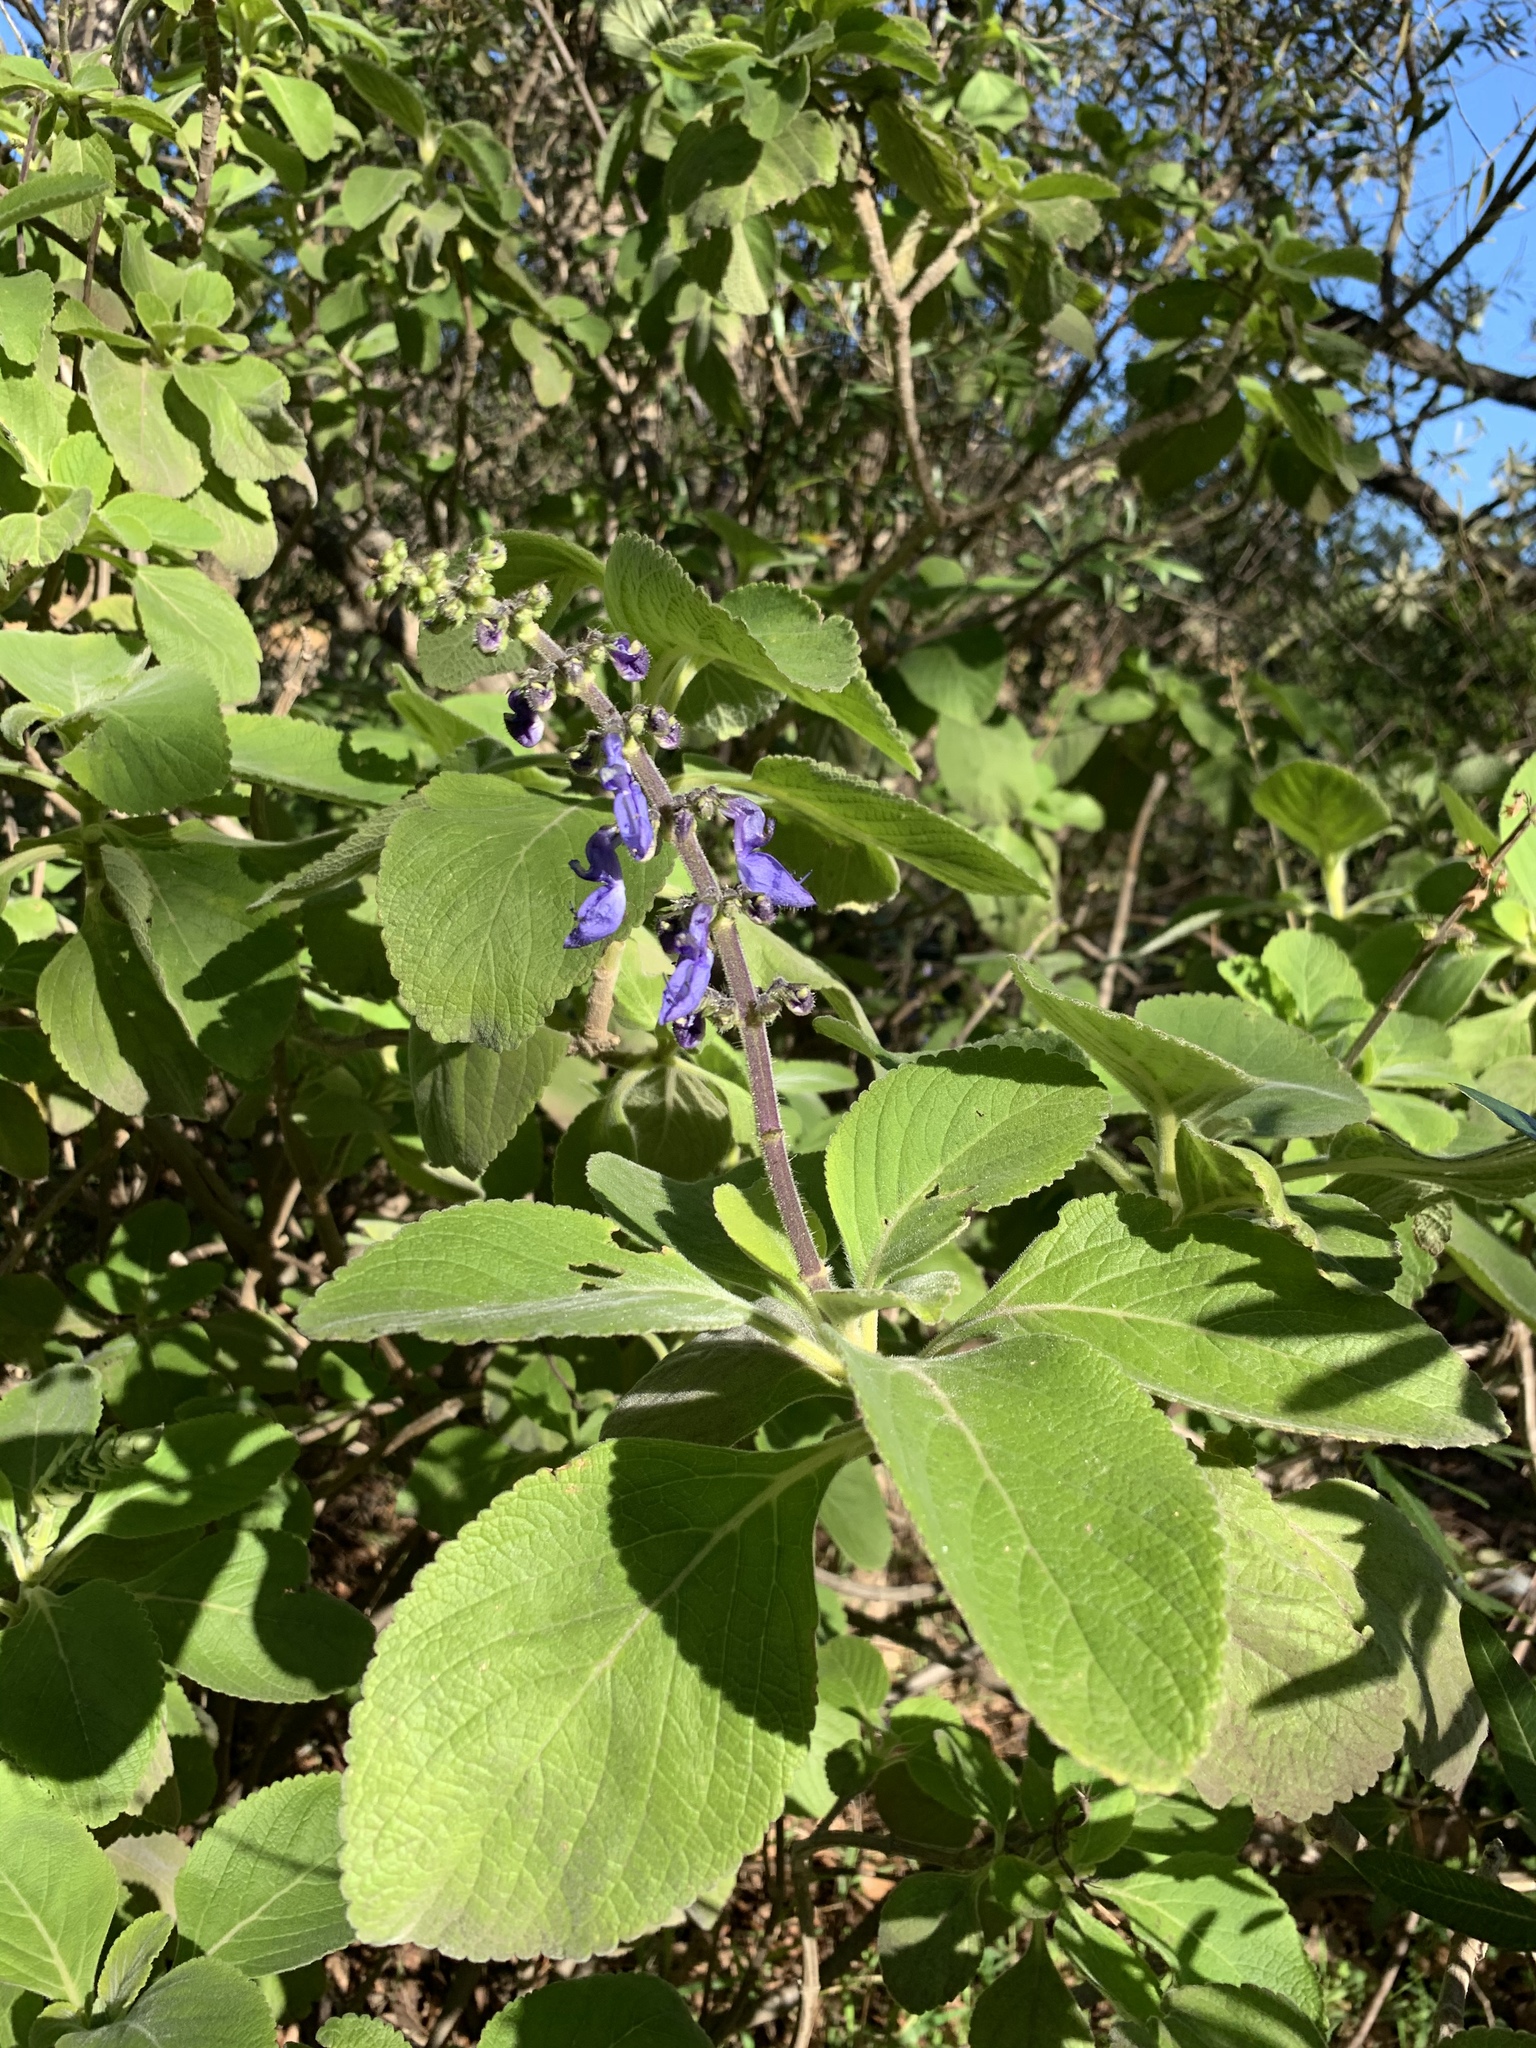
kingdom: Plantae
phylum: Tracheophyta
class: Magnoliopsida
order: Lamiales
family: Lamiaceae
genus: Coleus
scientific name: Coleus barbatus
